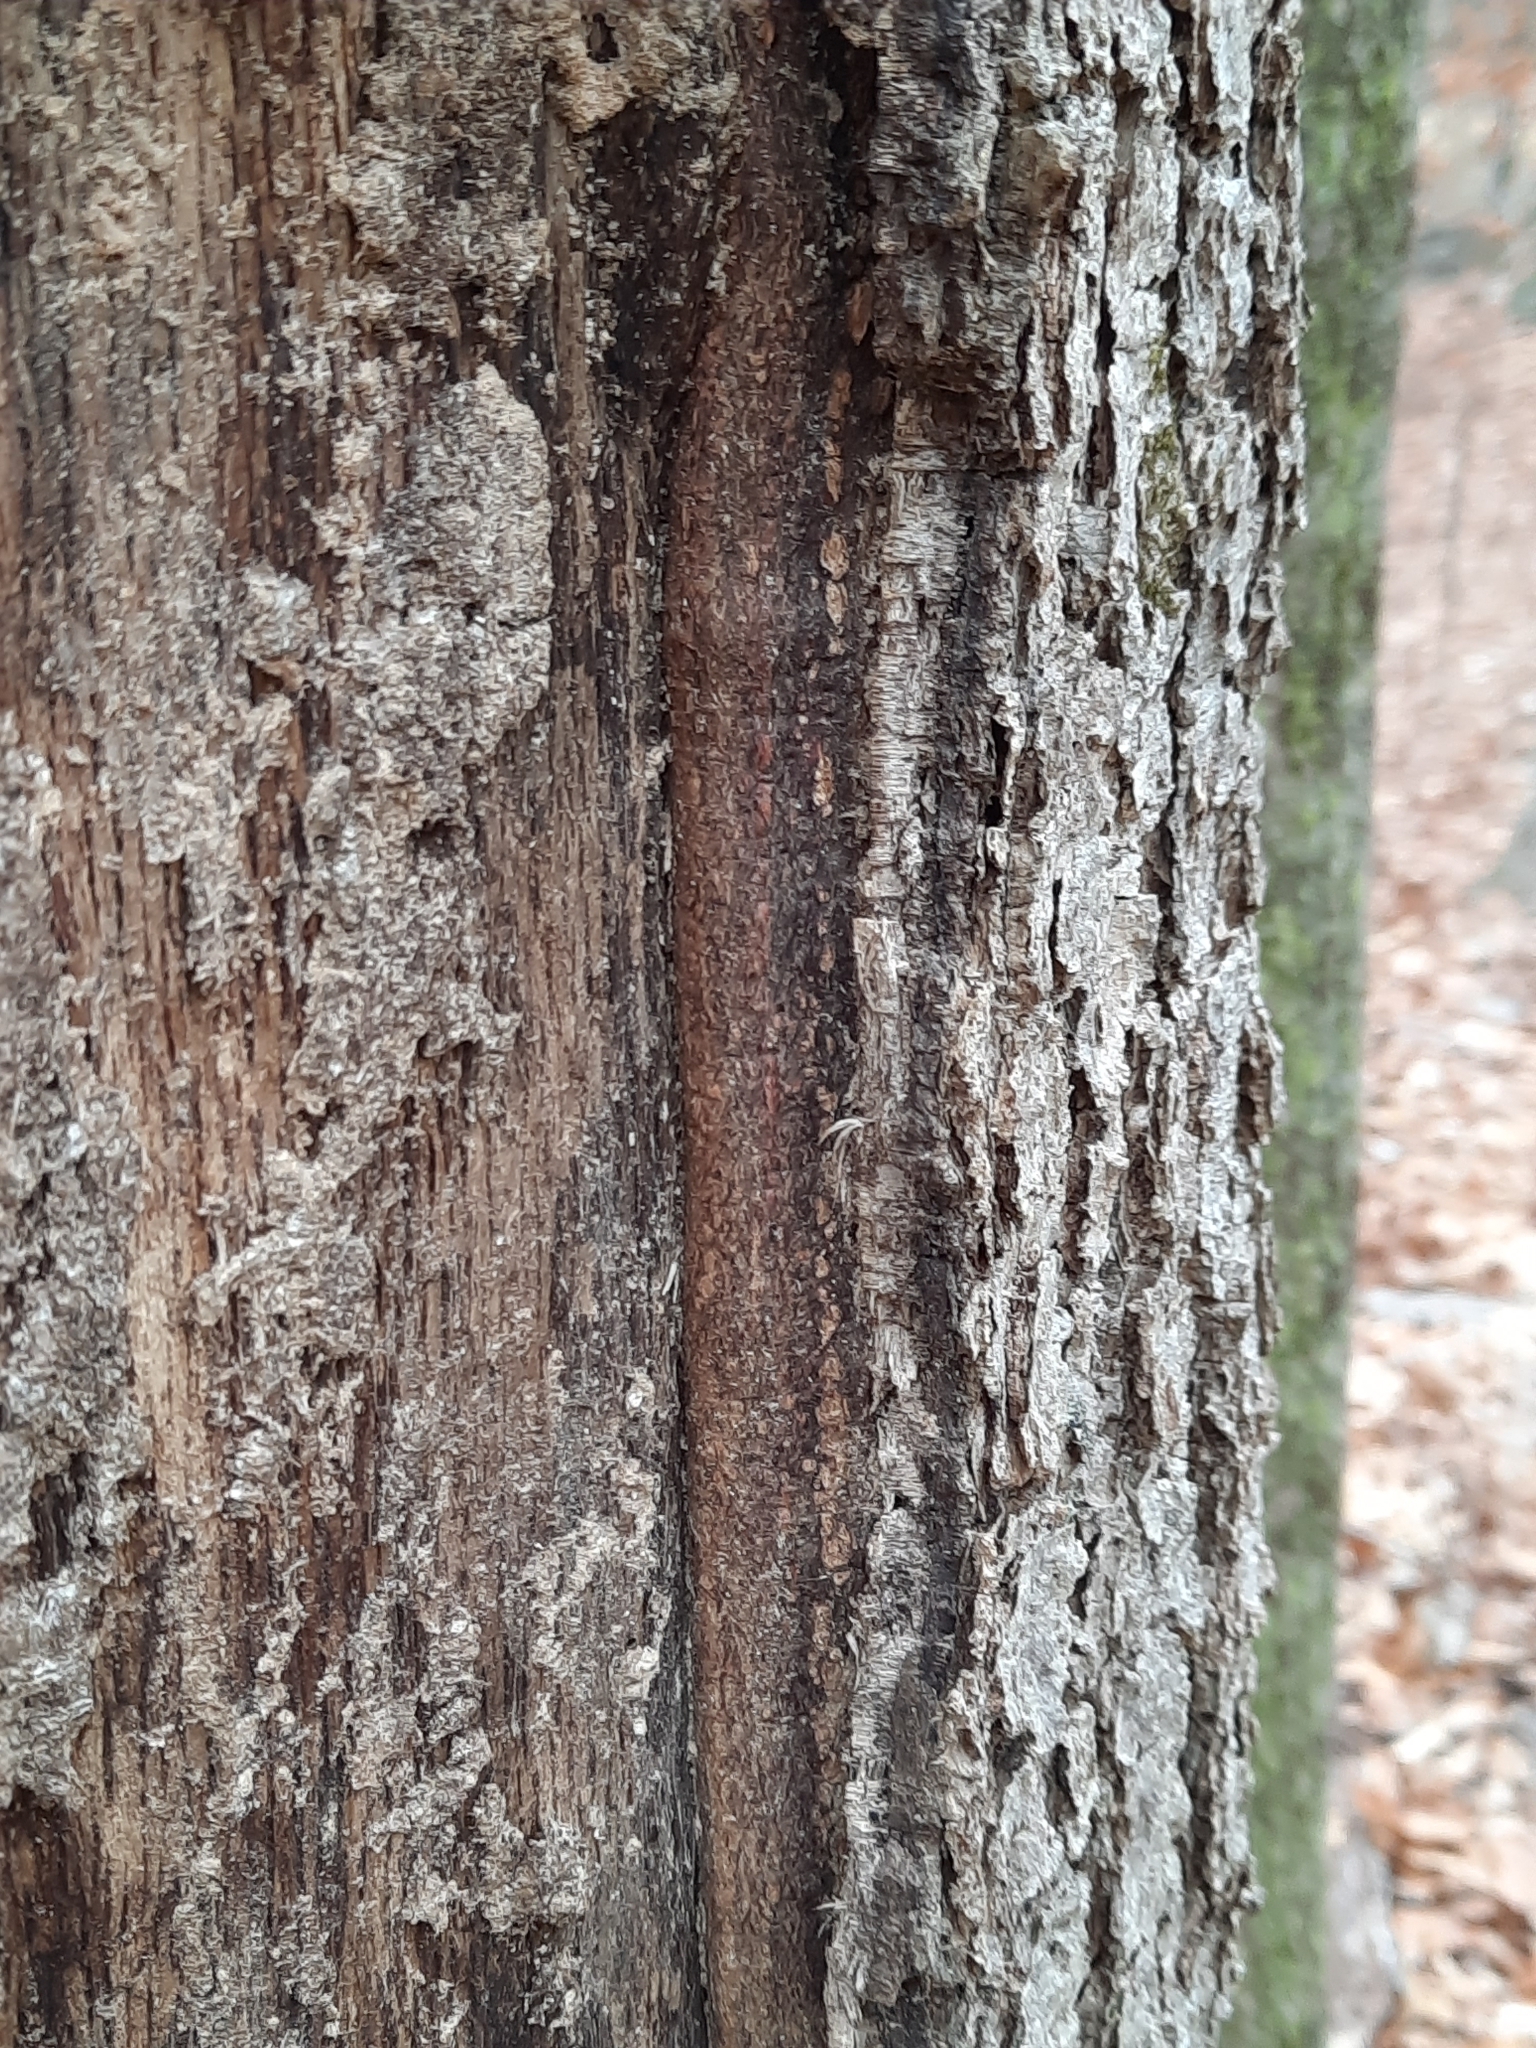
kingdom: Plantae
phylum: Tracheophyta
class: Magnoliopsida
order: Fagales
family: Fagaceae
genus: Quercus
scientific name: Quercus alba
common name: White oak
